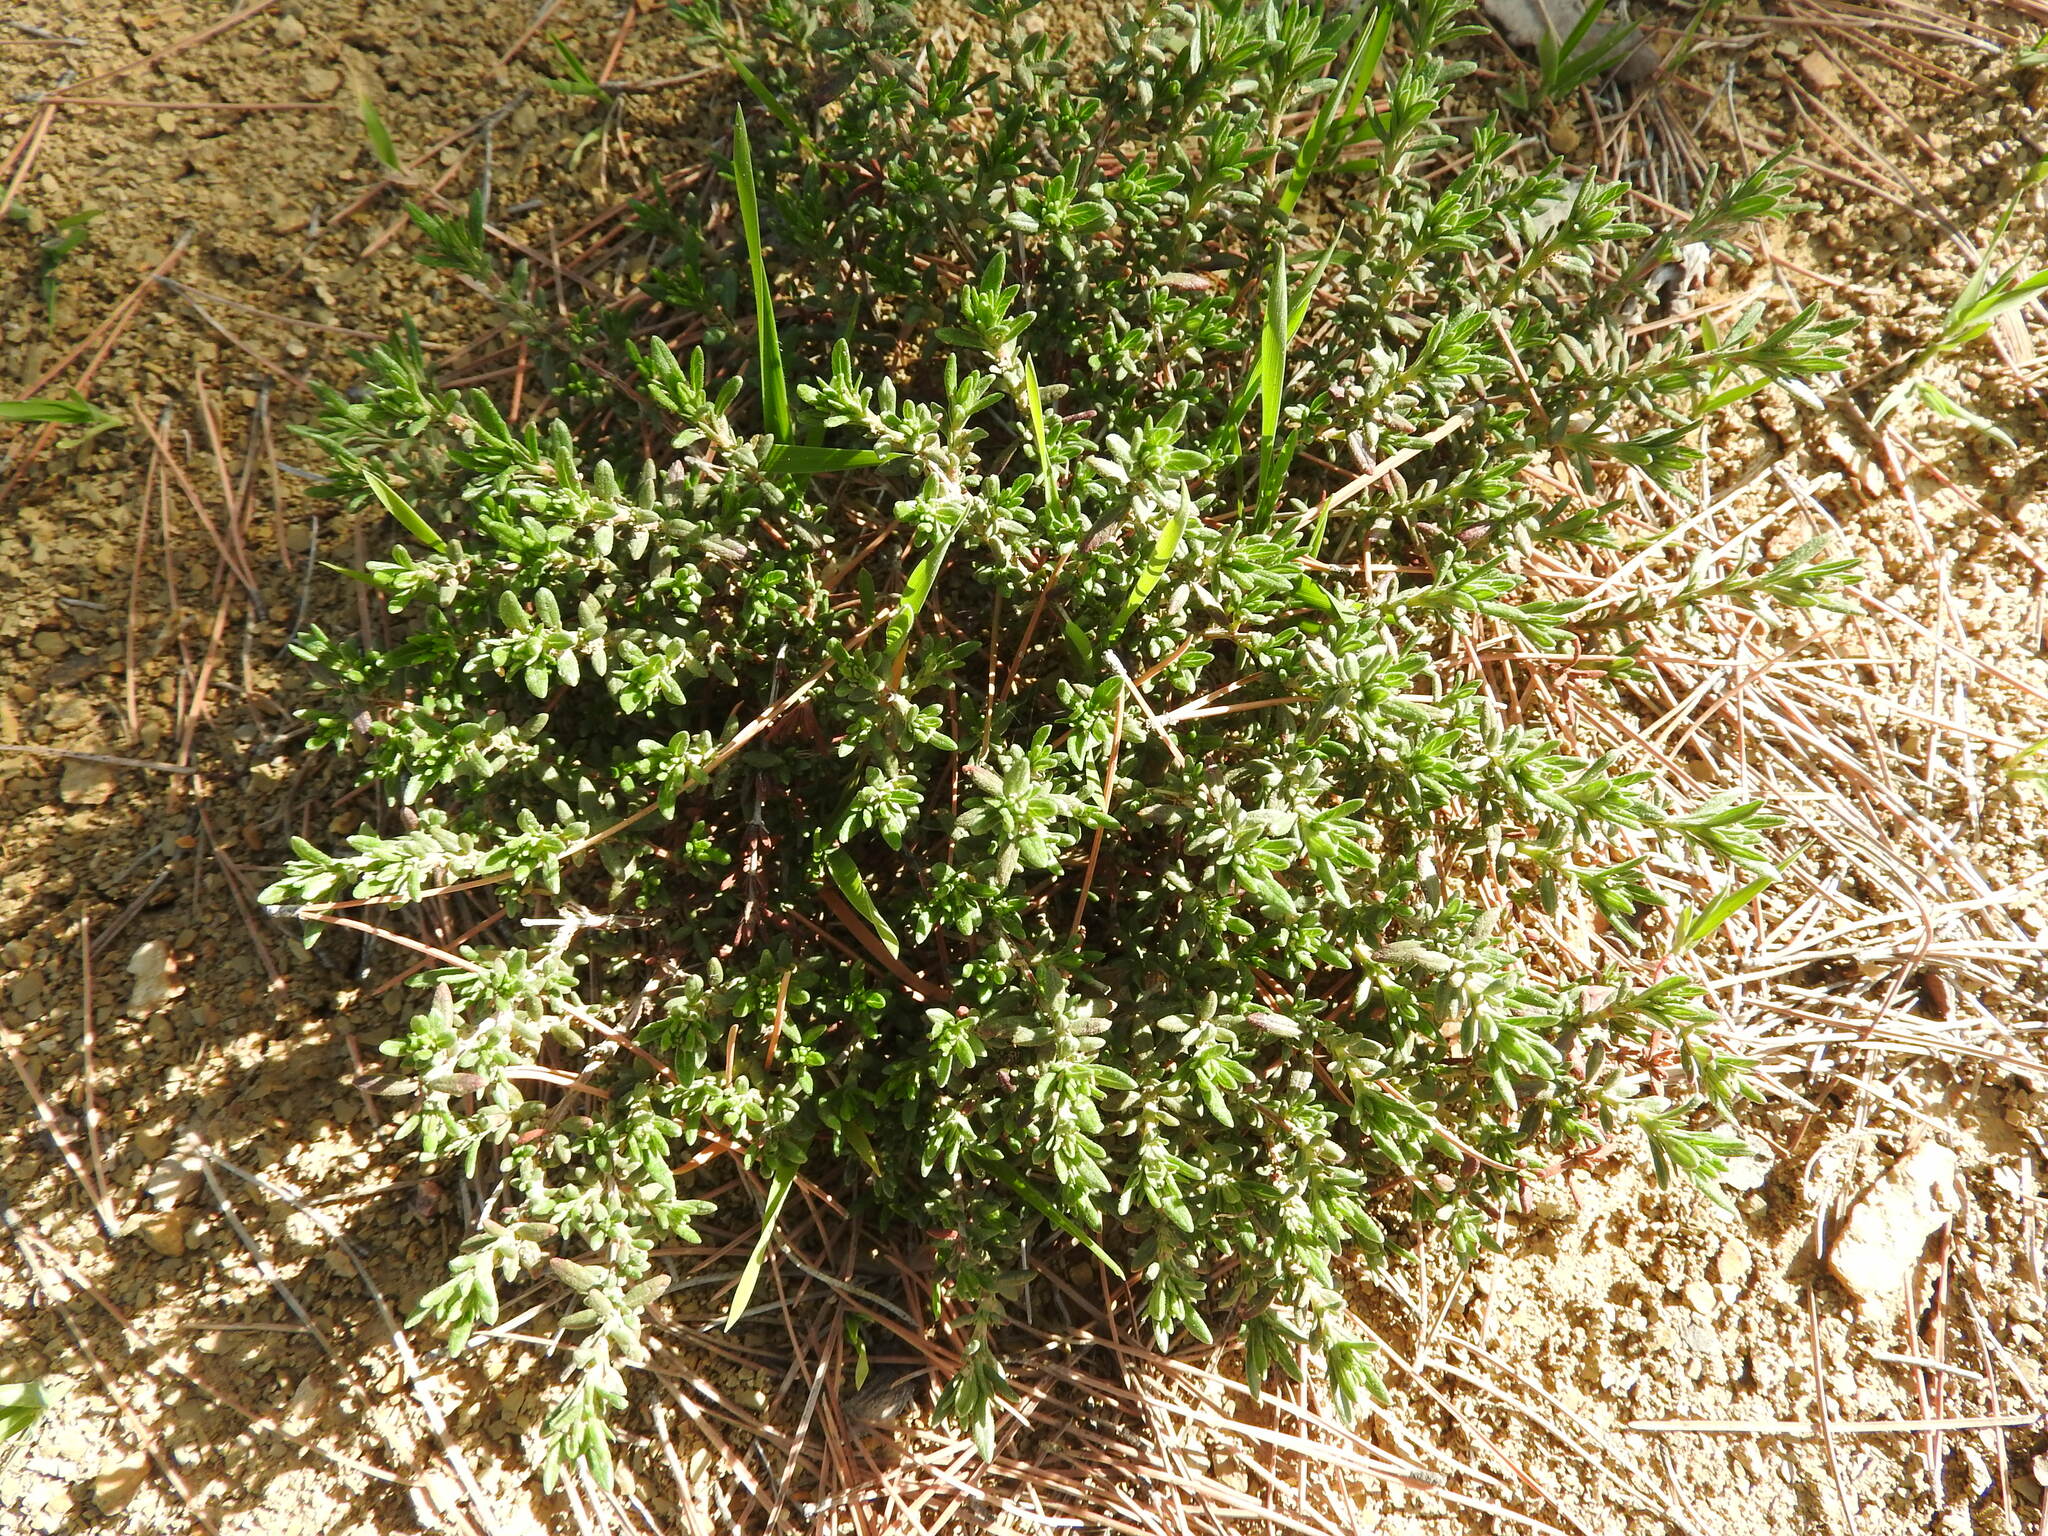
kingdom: Plantae
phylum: Tracheophyta
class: Magnoliopsida
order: Malvales
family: Cistaceae
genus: Fumana
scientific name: Fumana thymifolia
